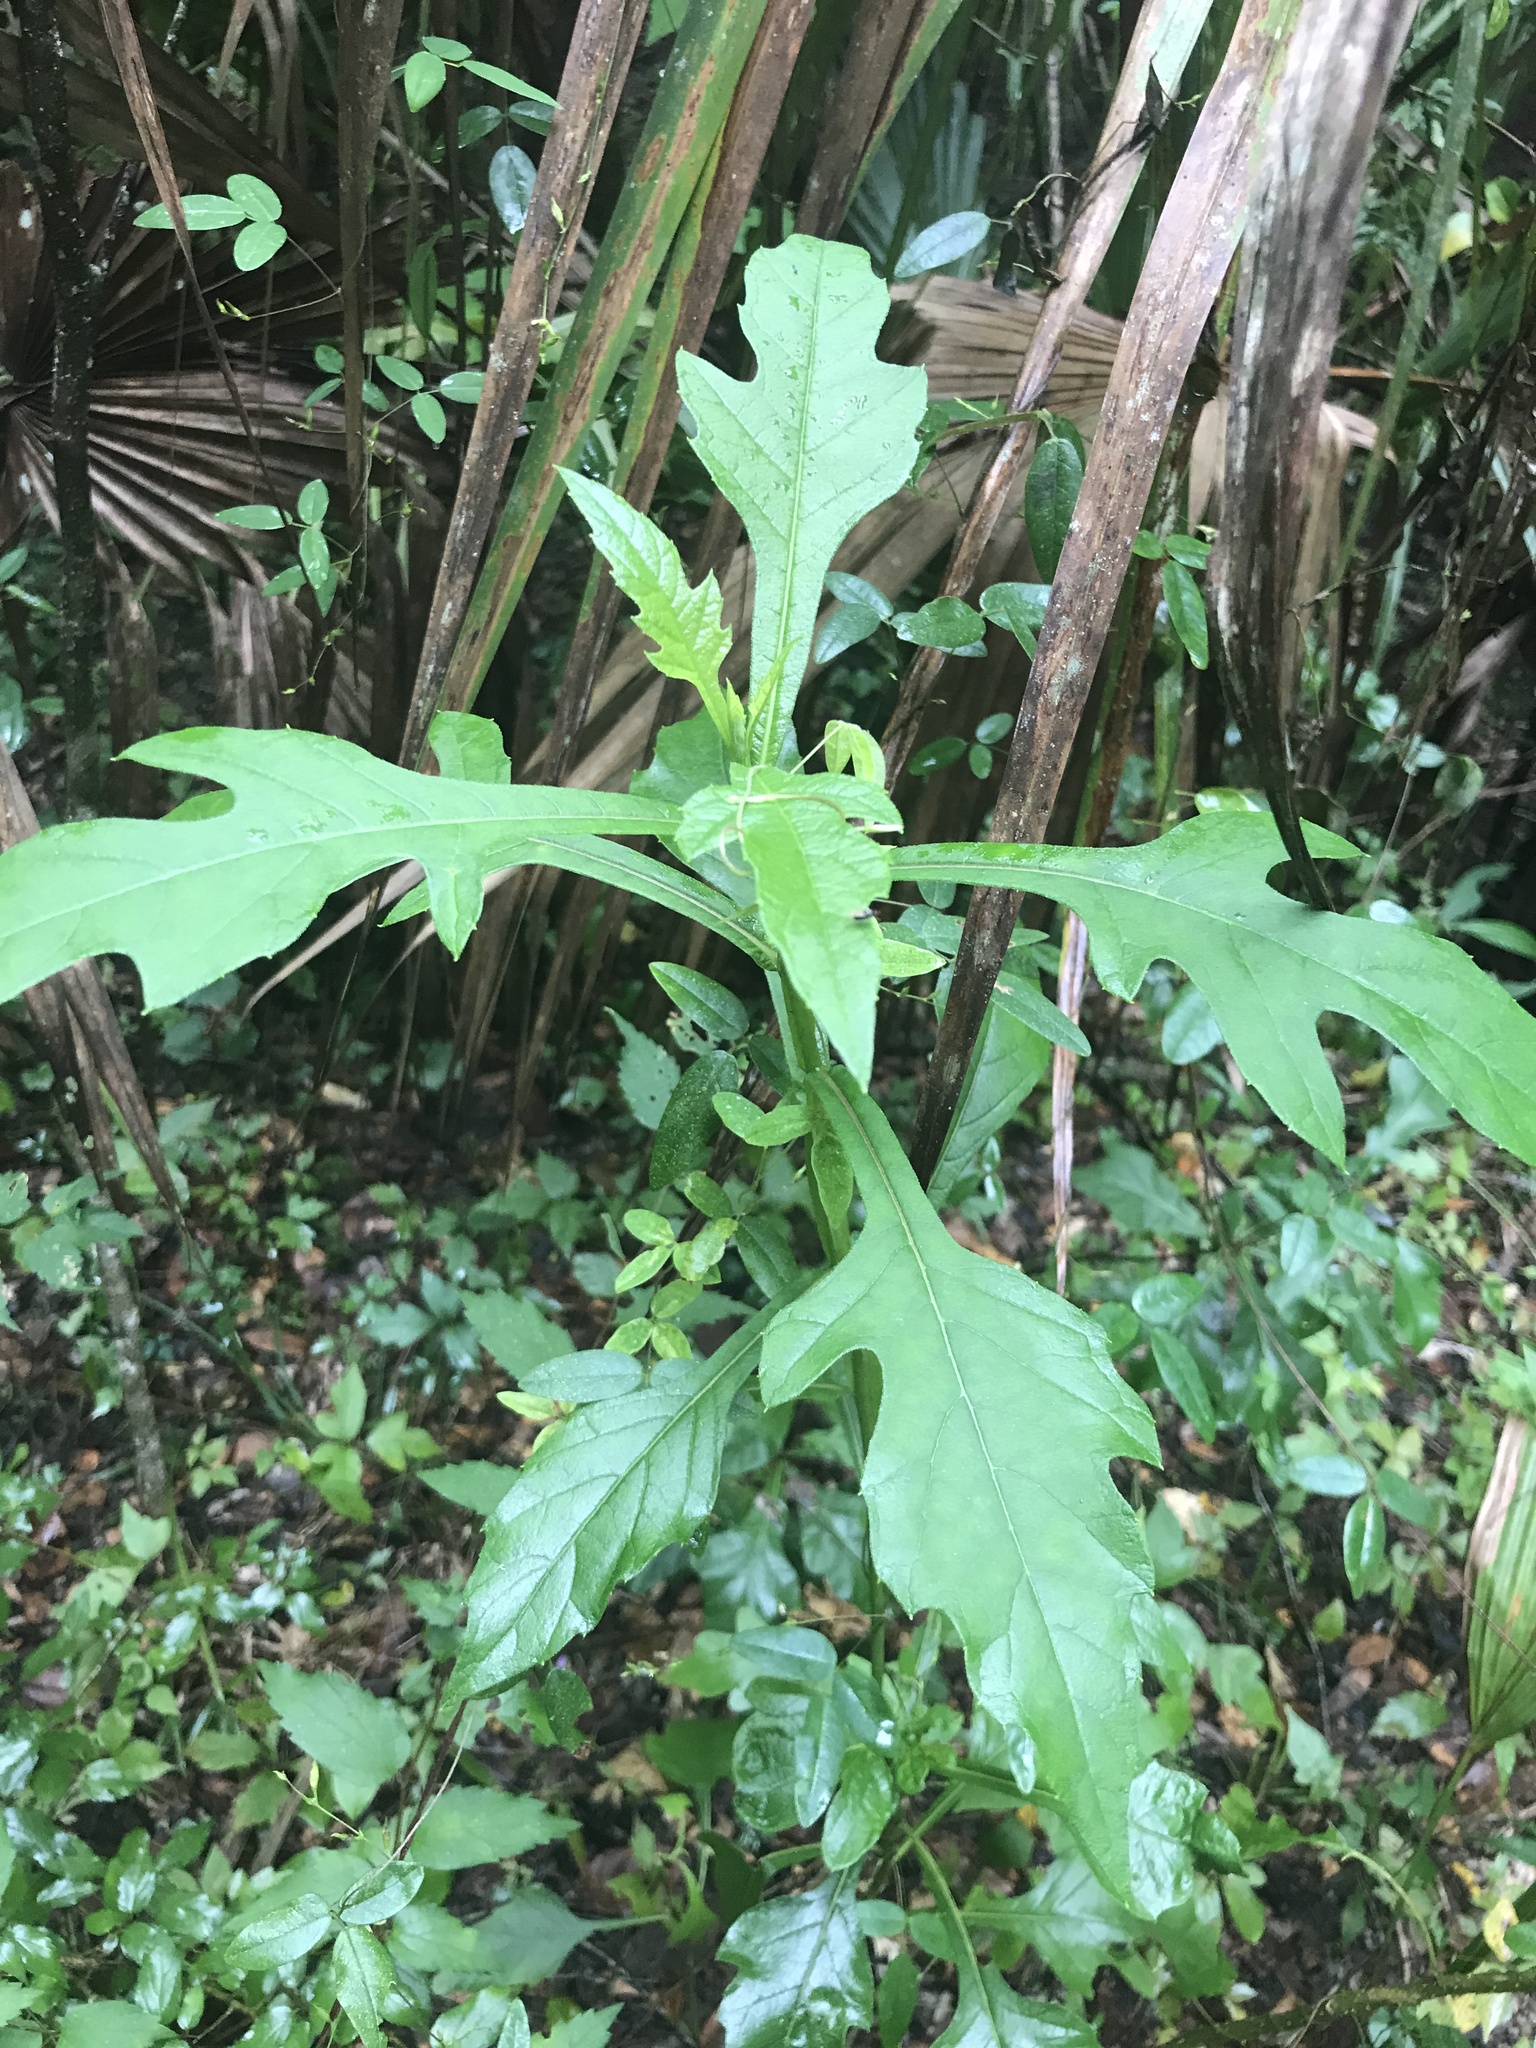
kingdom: Plantae
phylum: Tracheophyta
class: Magnoliopsida
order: Asterales
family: Asteraceae
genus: Verbesina
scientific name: Verbesina virginica
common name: Frostweed
